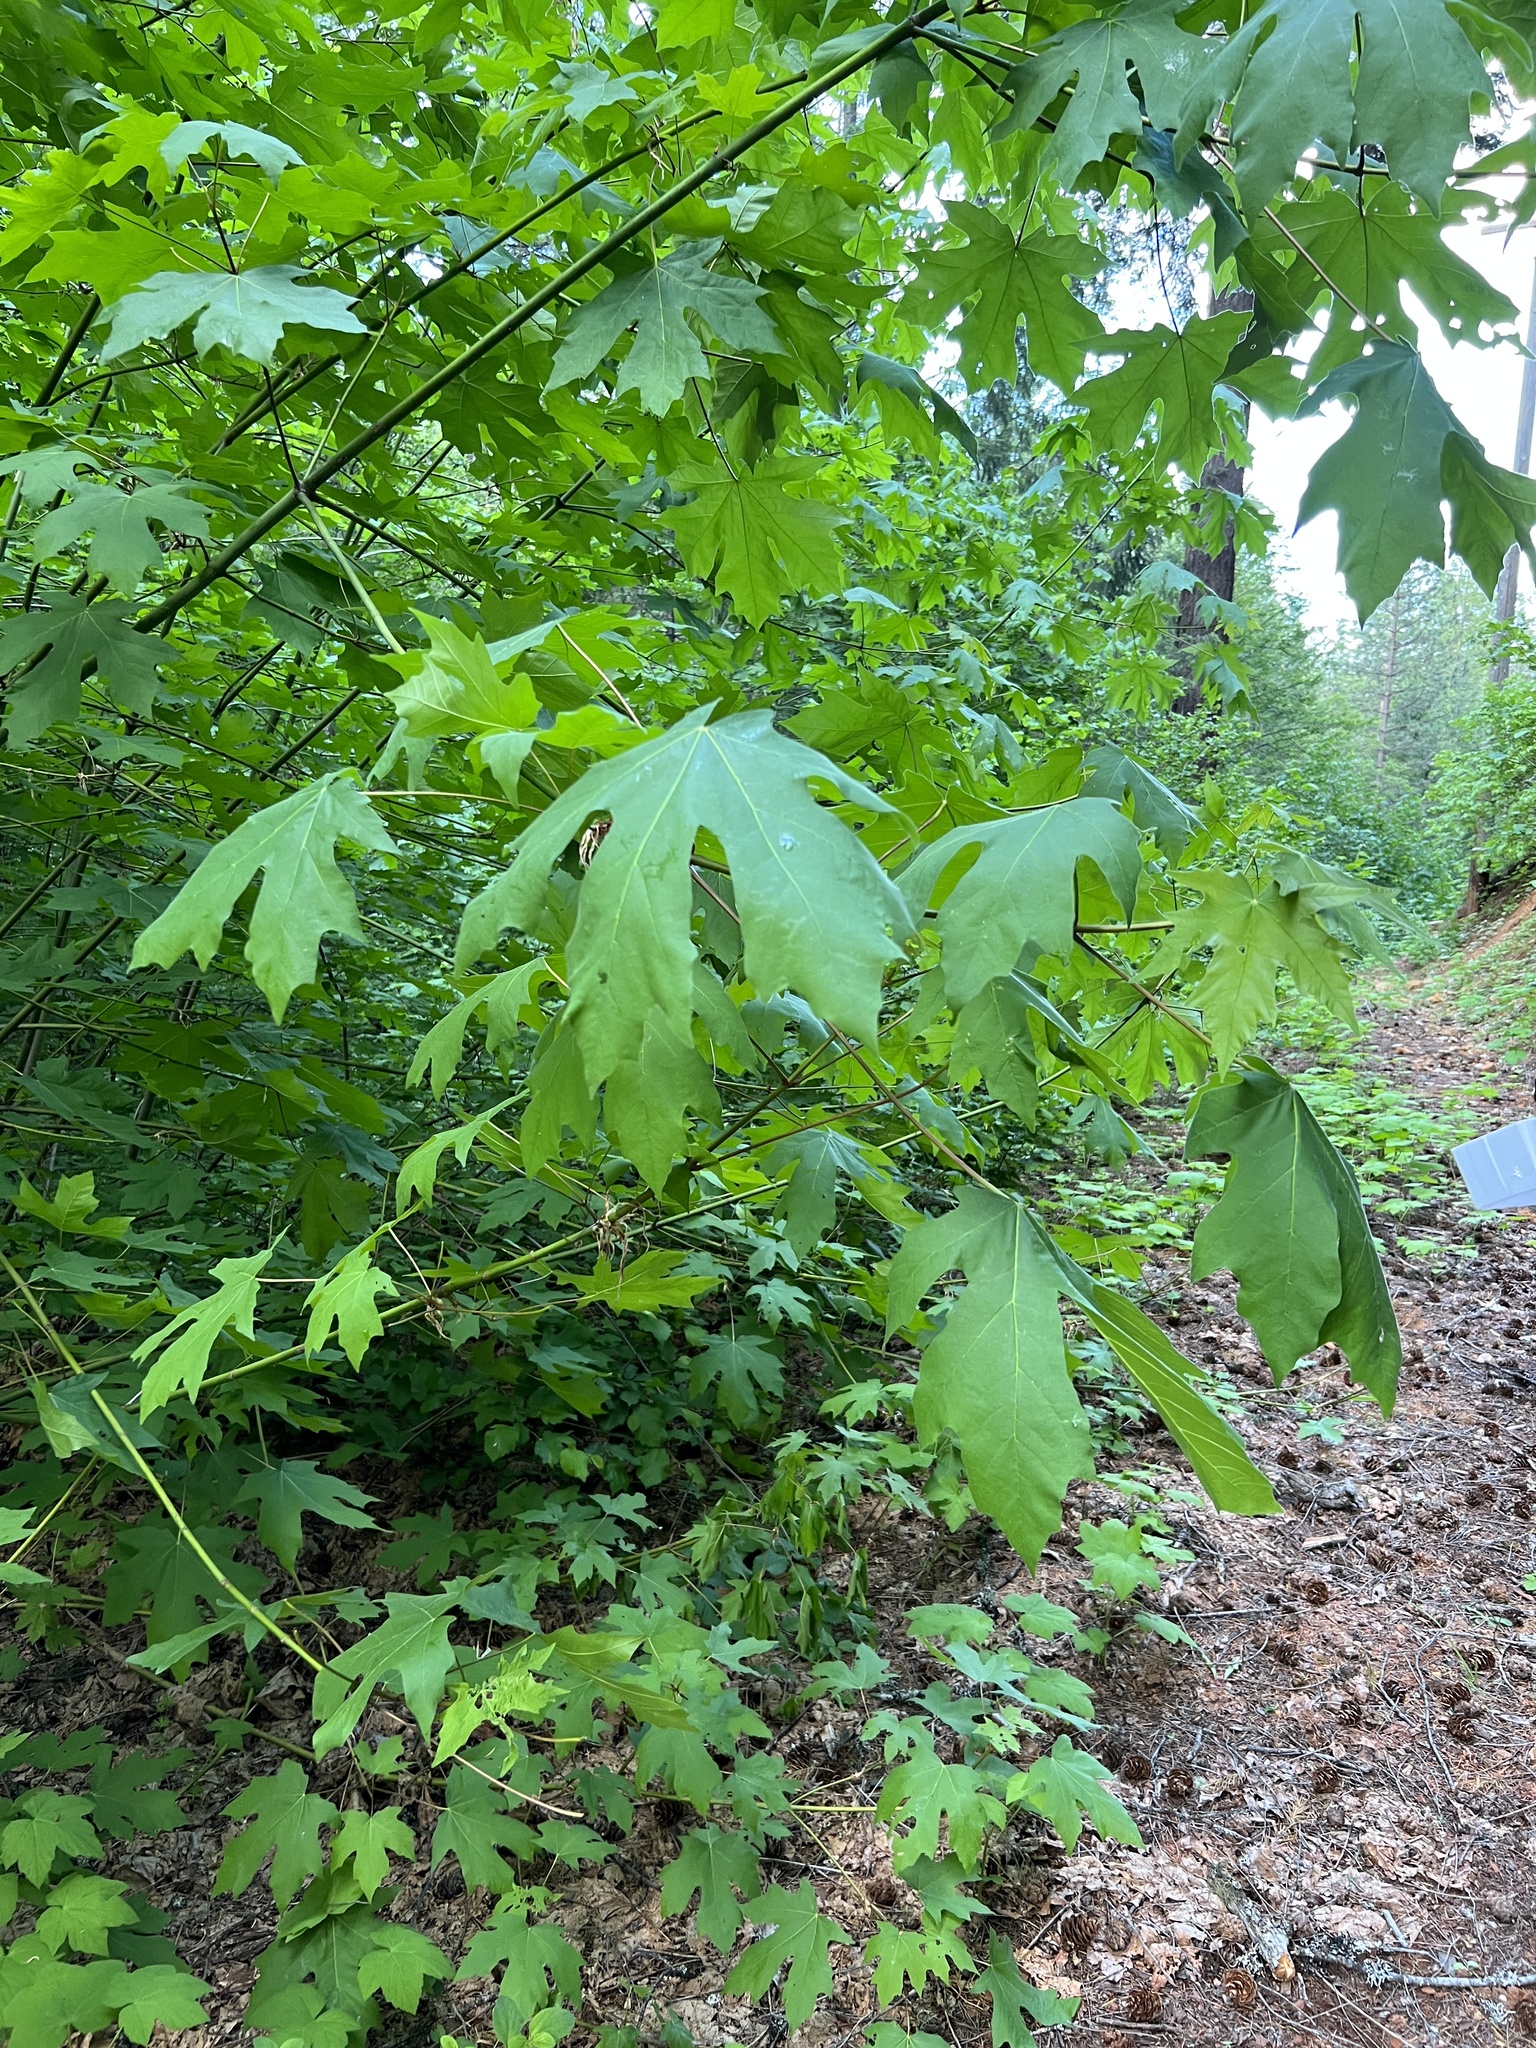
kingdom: Plantae
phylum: Tracheophyta
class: Magnoliopsida
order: Sapindales
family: Sapindaceae
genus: Acer
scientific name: Acer macrophyllum
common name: Oregon maple
